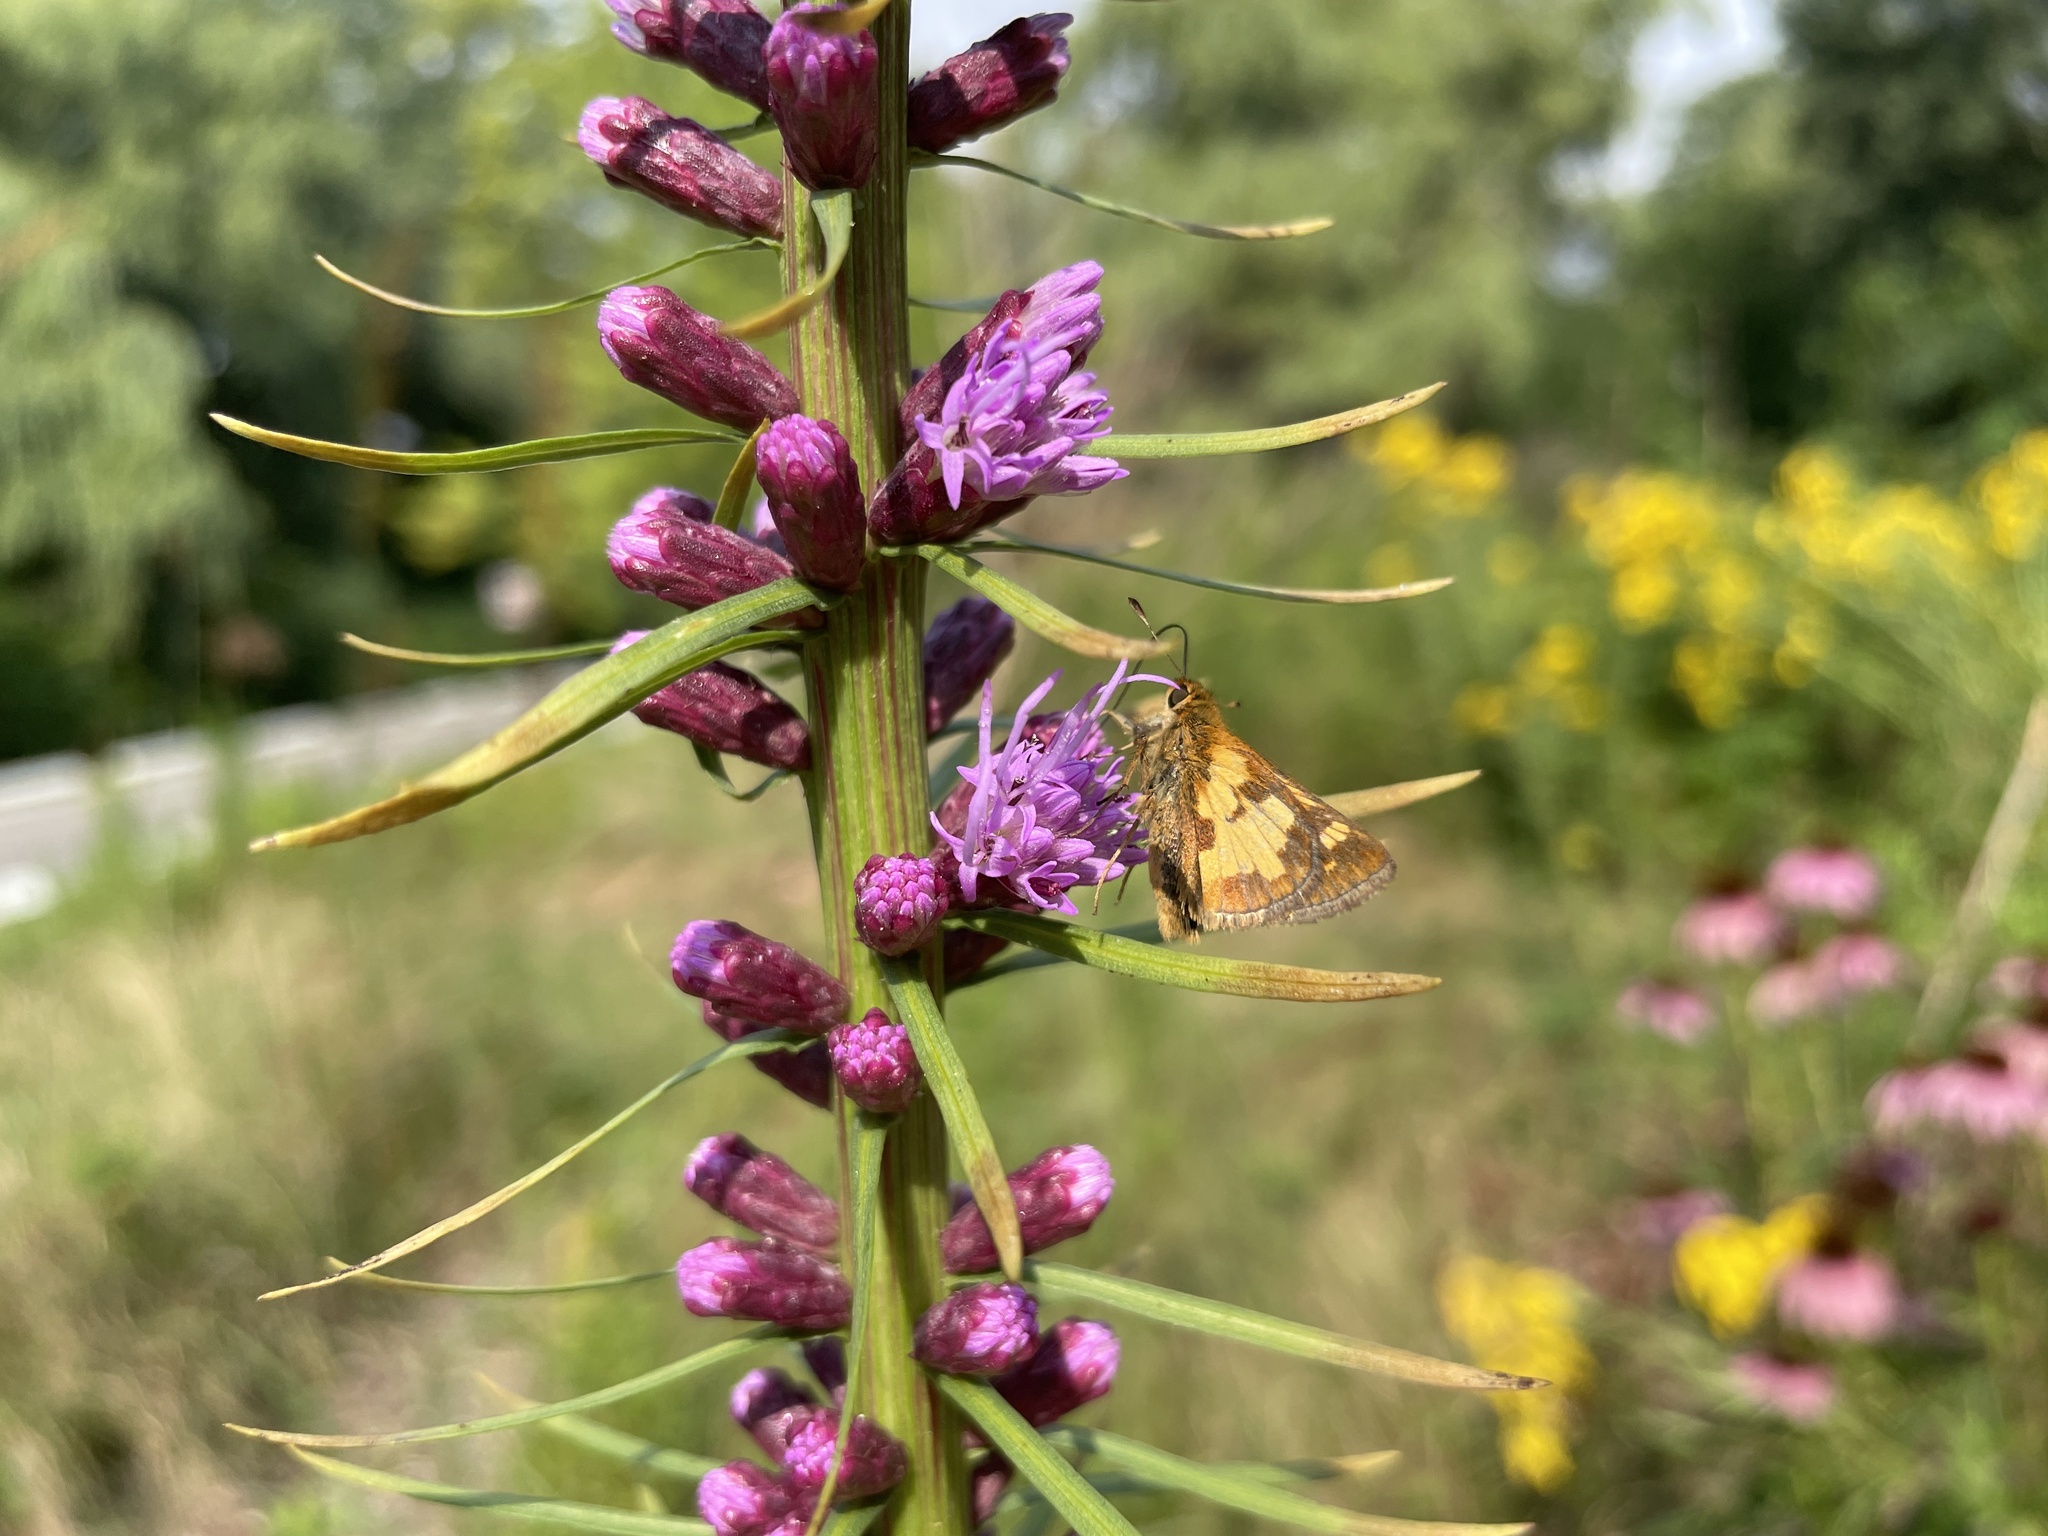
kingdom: Animalia
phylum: Arthropoda
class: Insecta
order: Lepidoptera
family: Hesperiidae
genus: Polites
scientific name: Polites coras
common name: Peck's skipper
